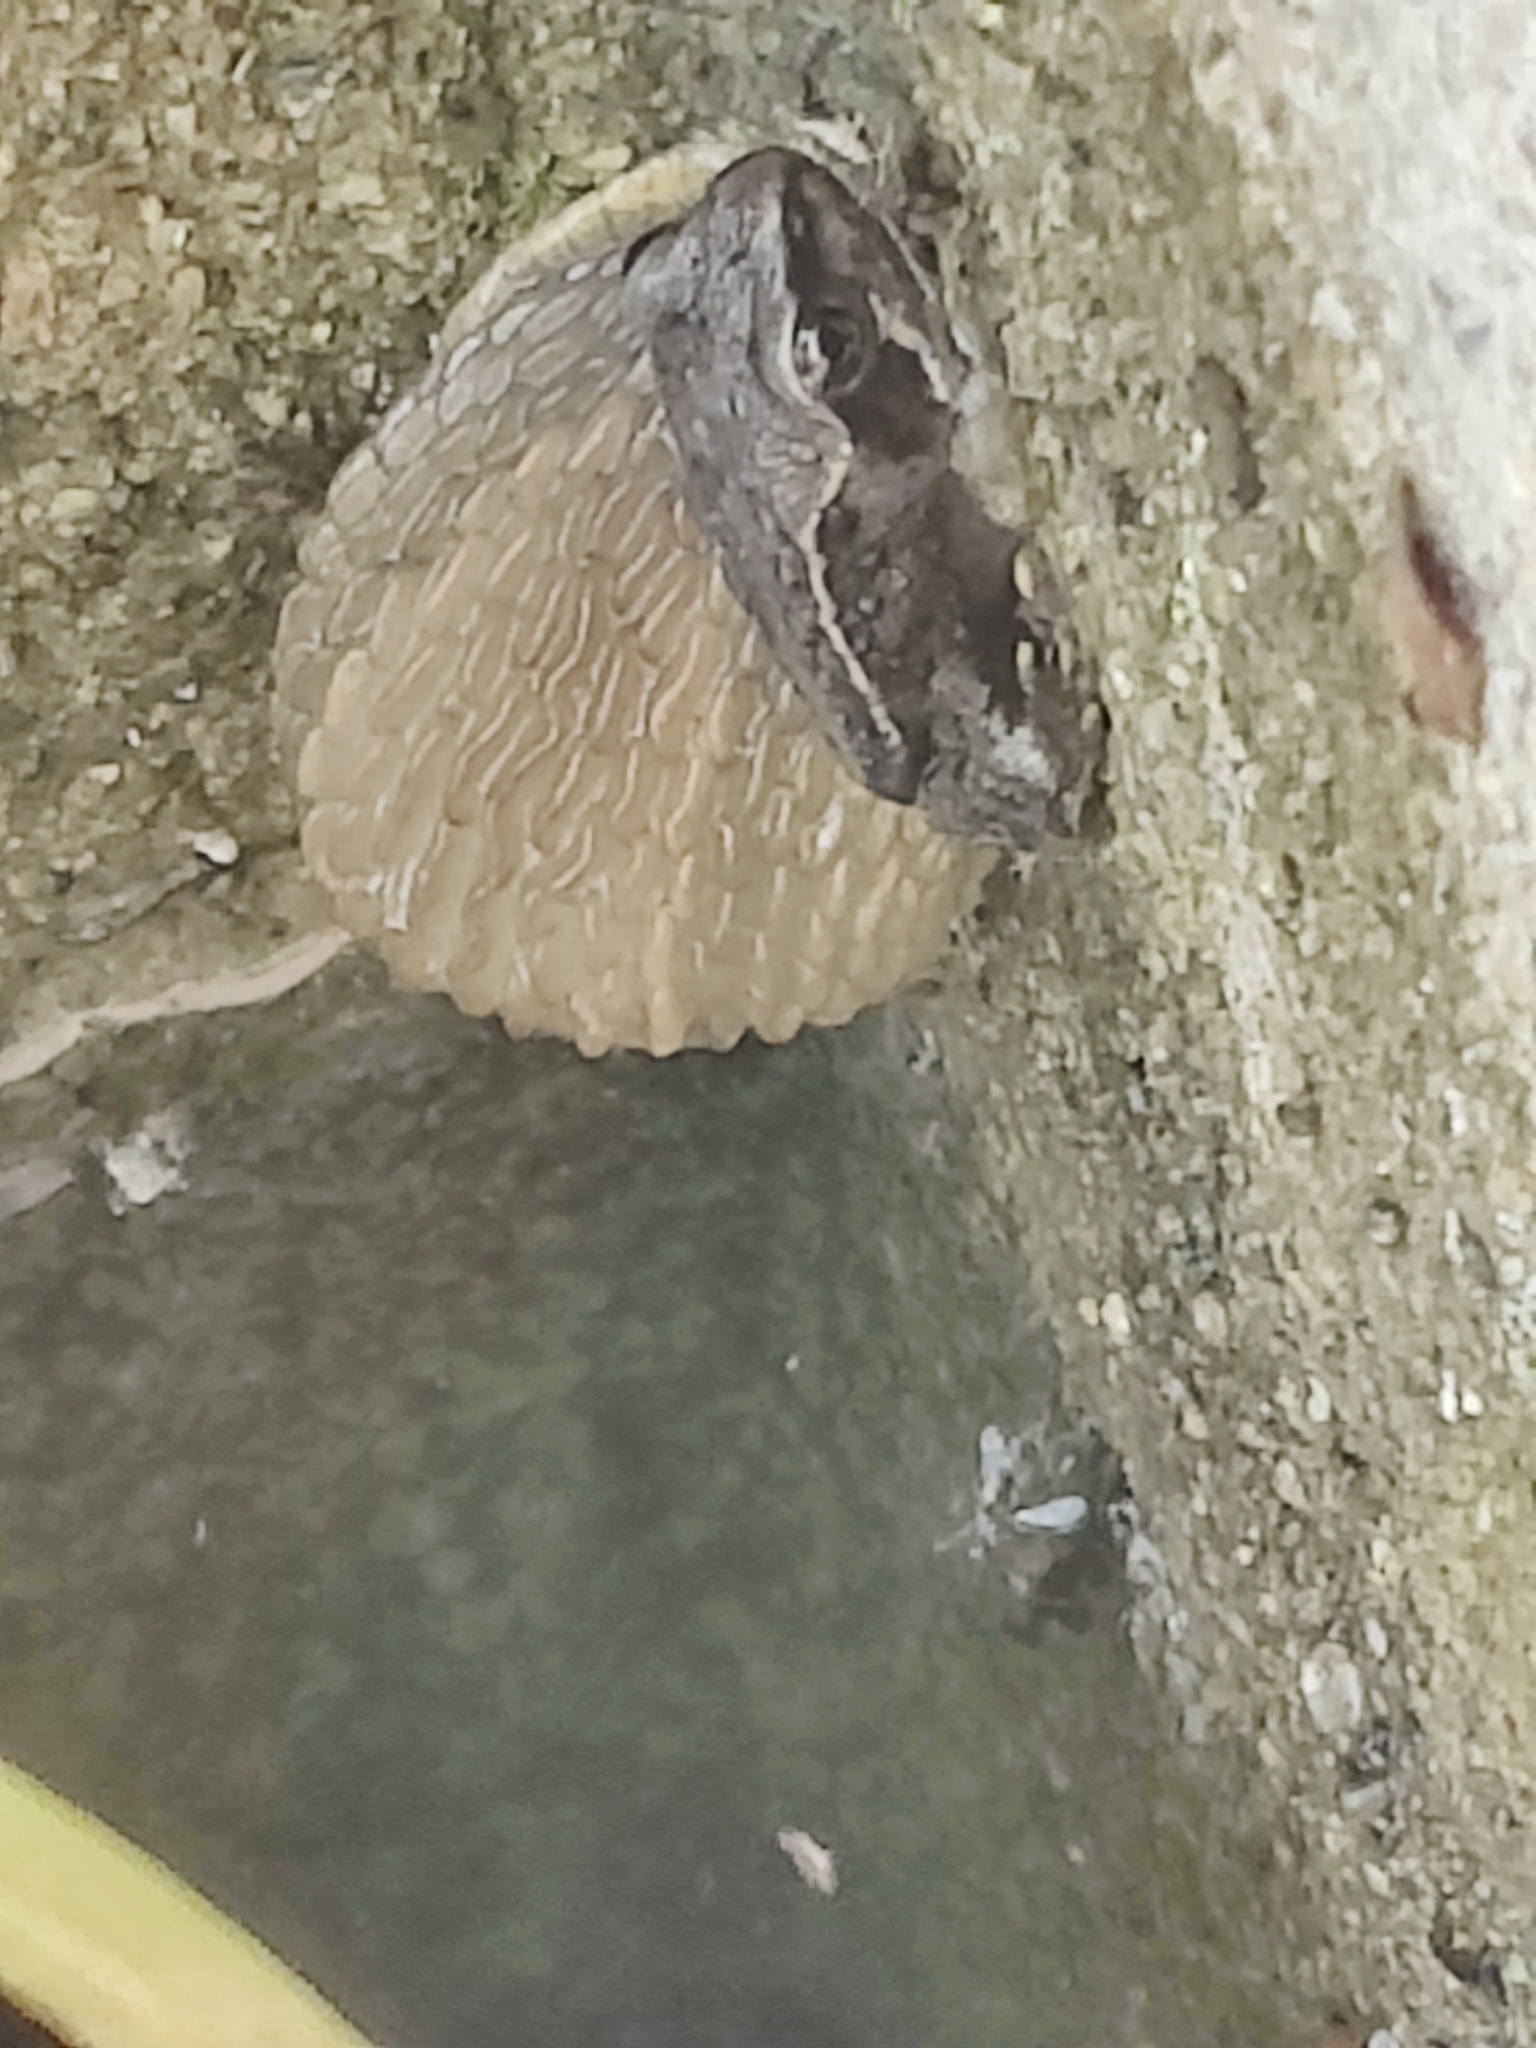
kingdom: Animalia
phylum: Chordata
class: Amphibia
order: Anura
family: Ranidae
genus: Rana
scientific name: Rana temporaria
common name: Common frog
